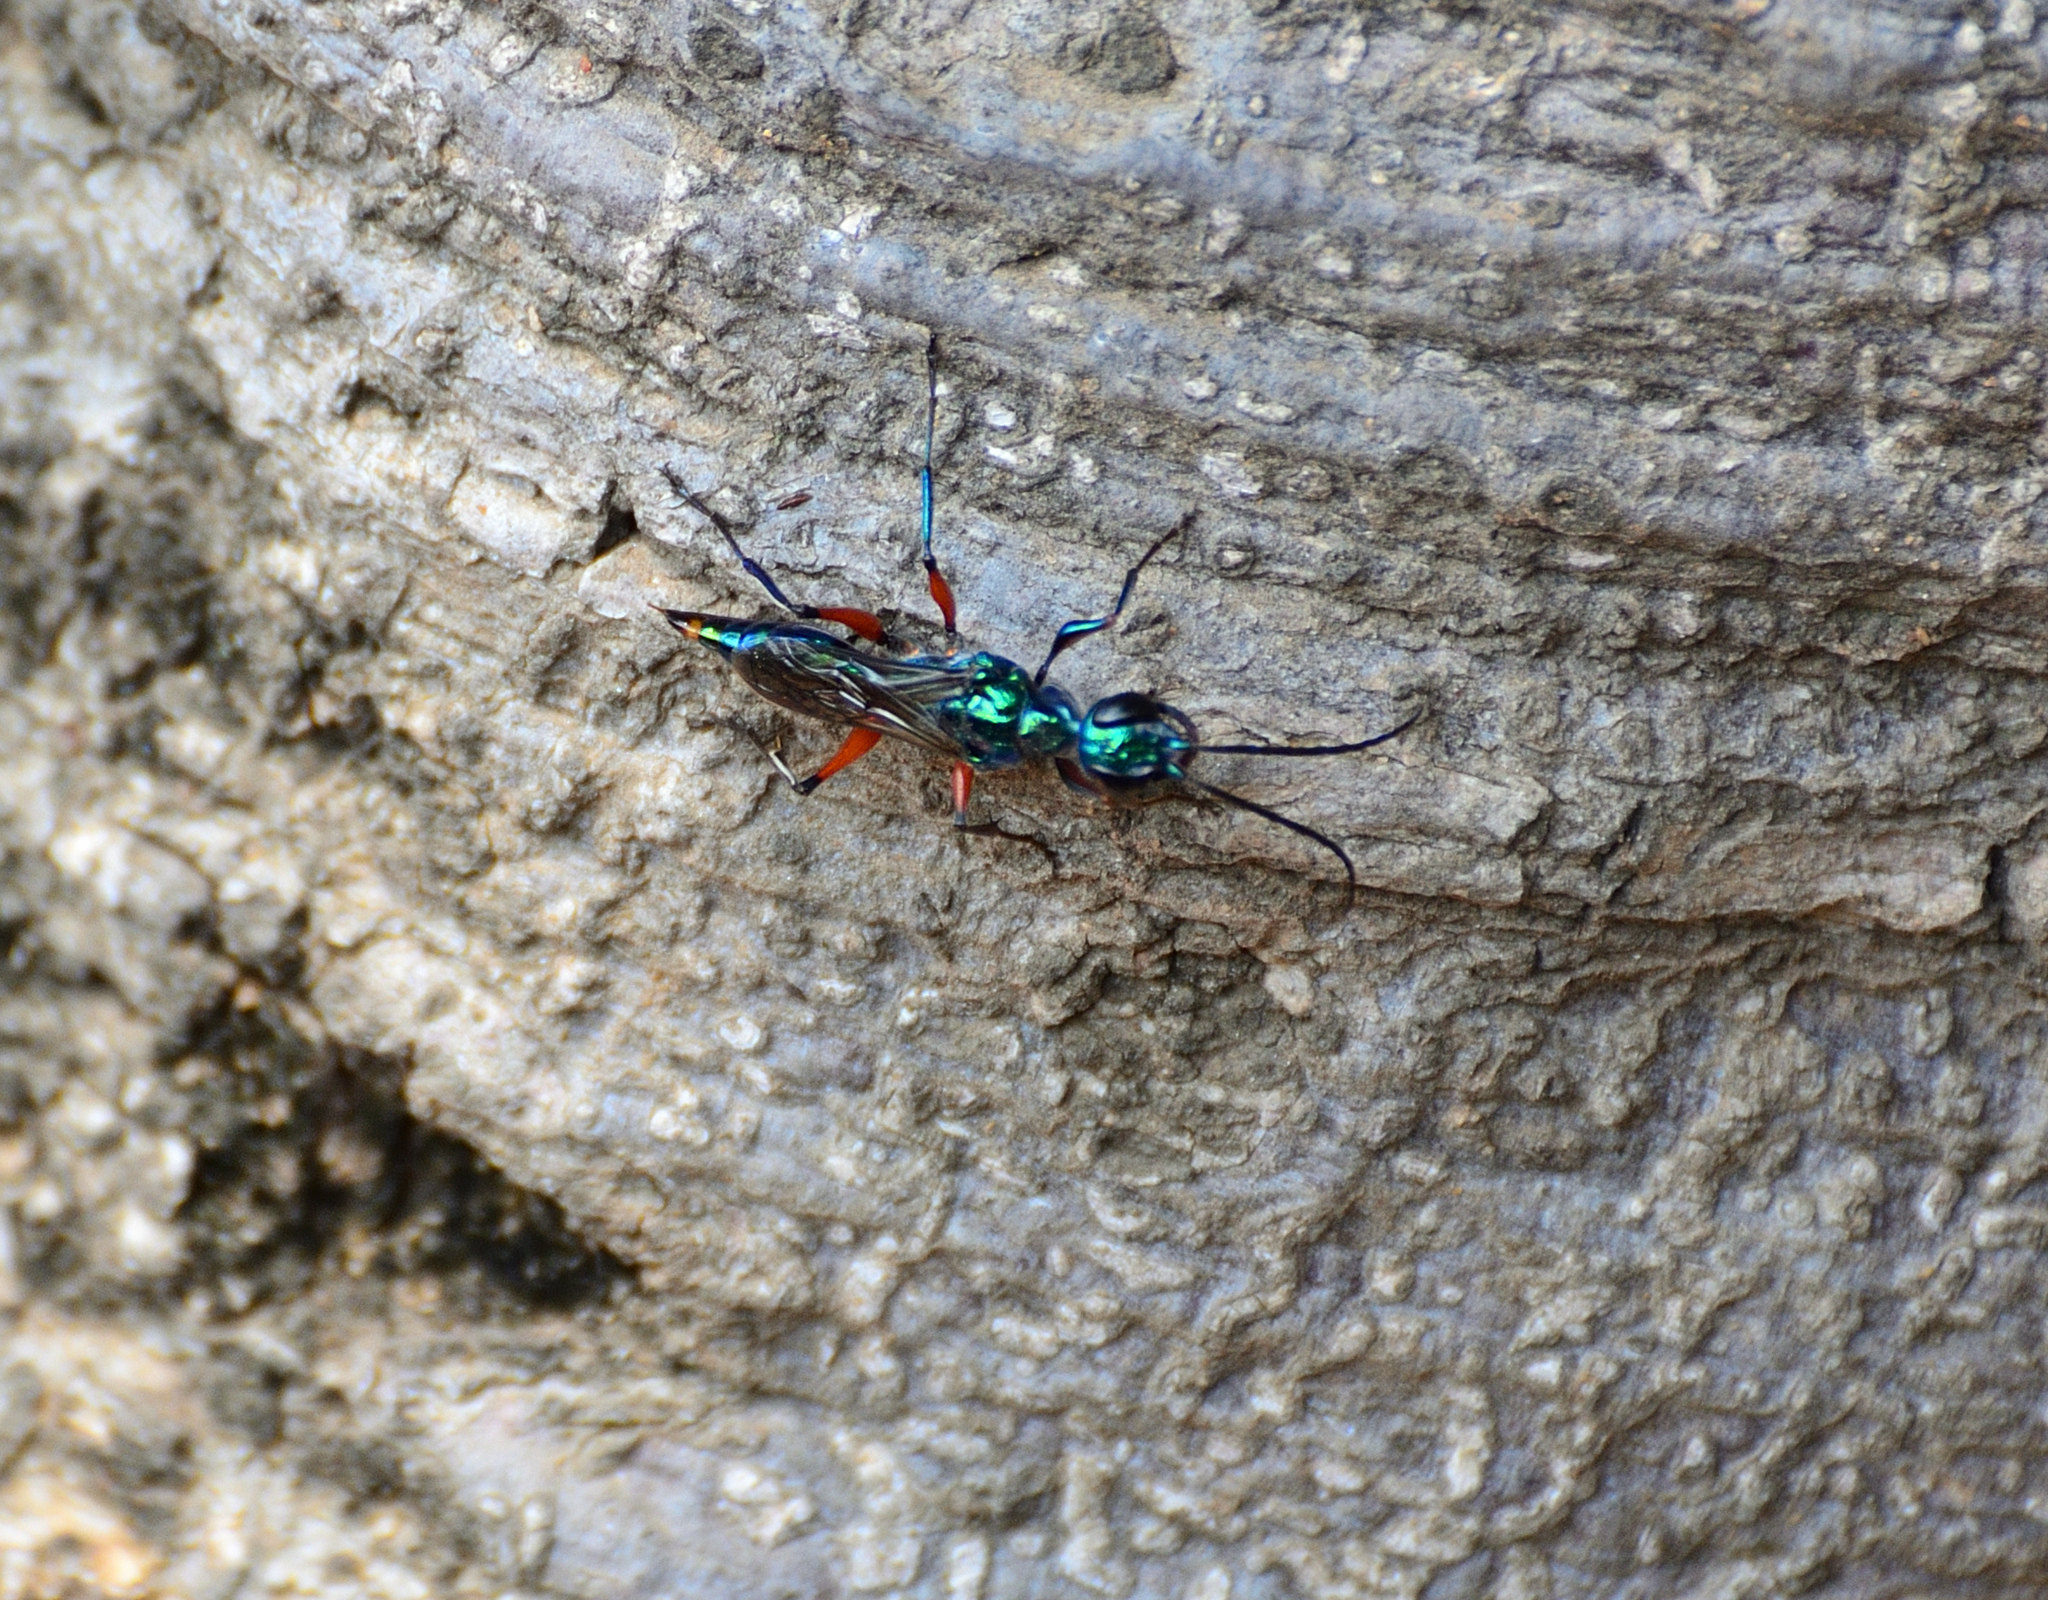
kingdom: Animalia
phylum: Arthropoda
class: Insecta
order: Hymenoptera
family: Ampulicidae
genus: Ampulex
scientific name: Ampulex compressa
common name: Emerald cockroach wasp
